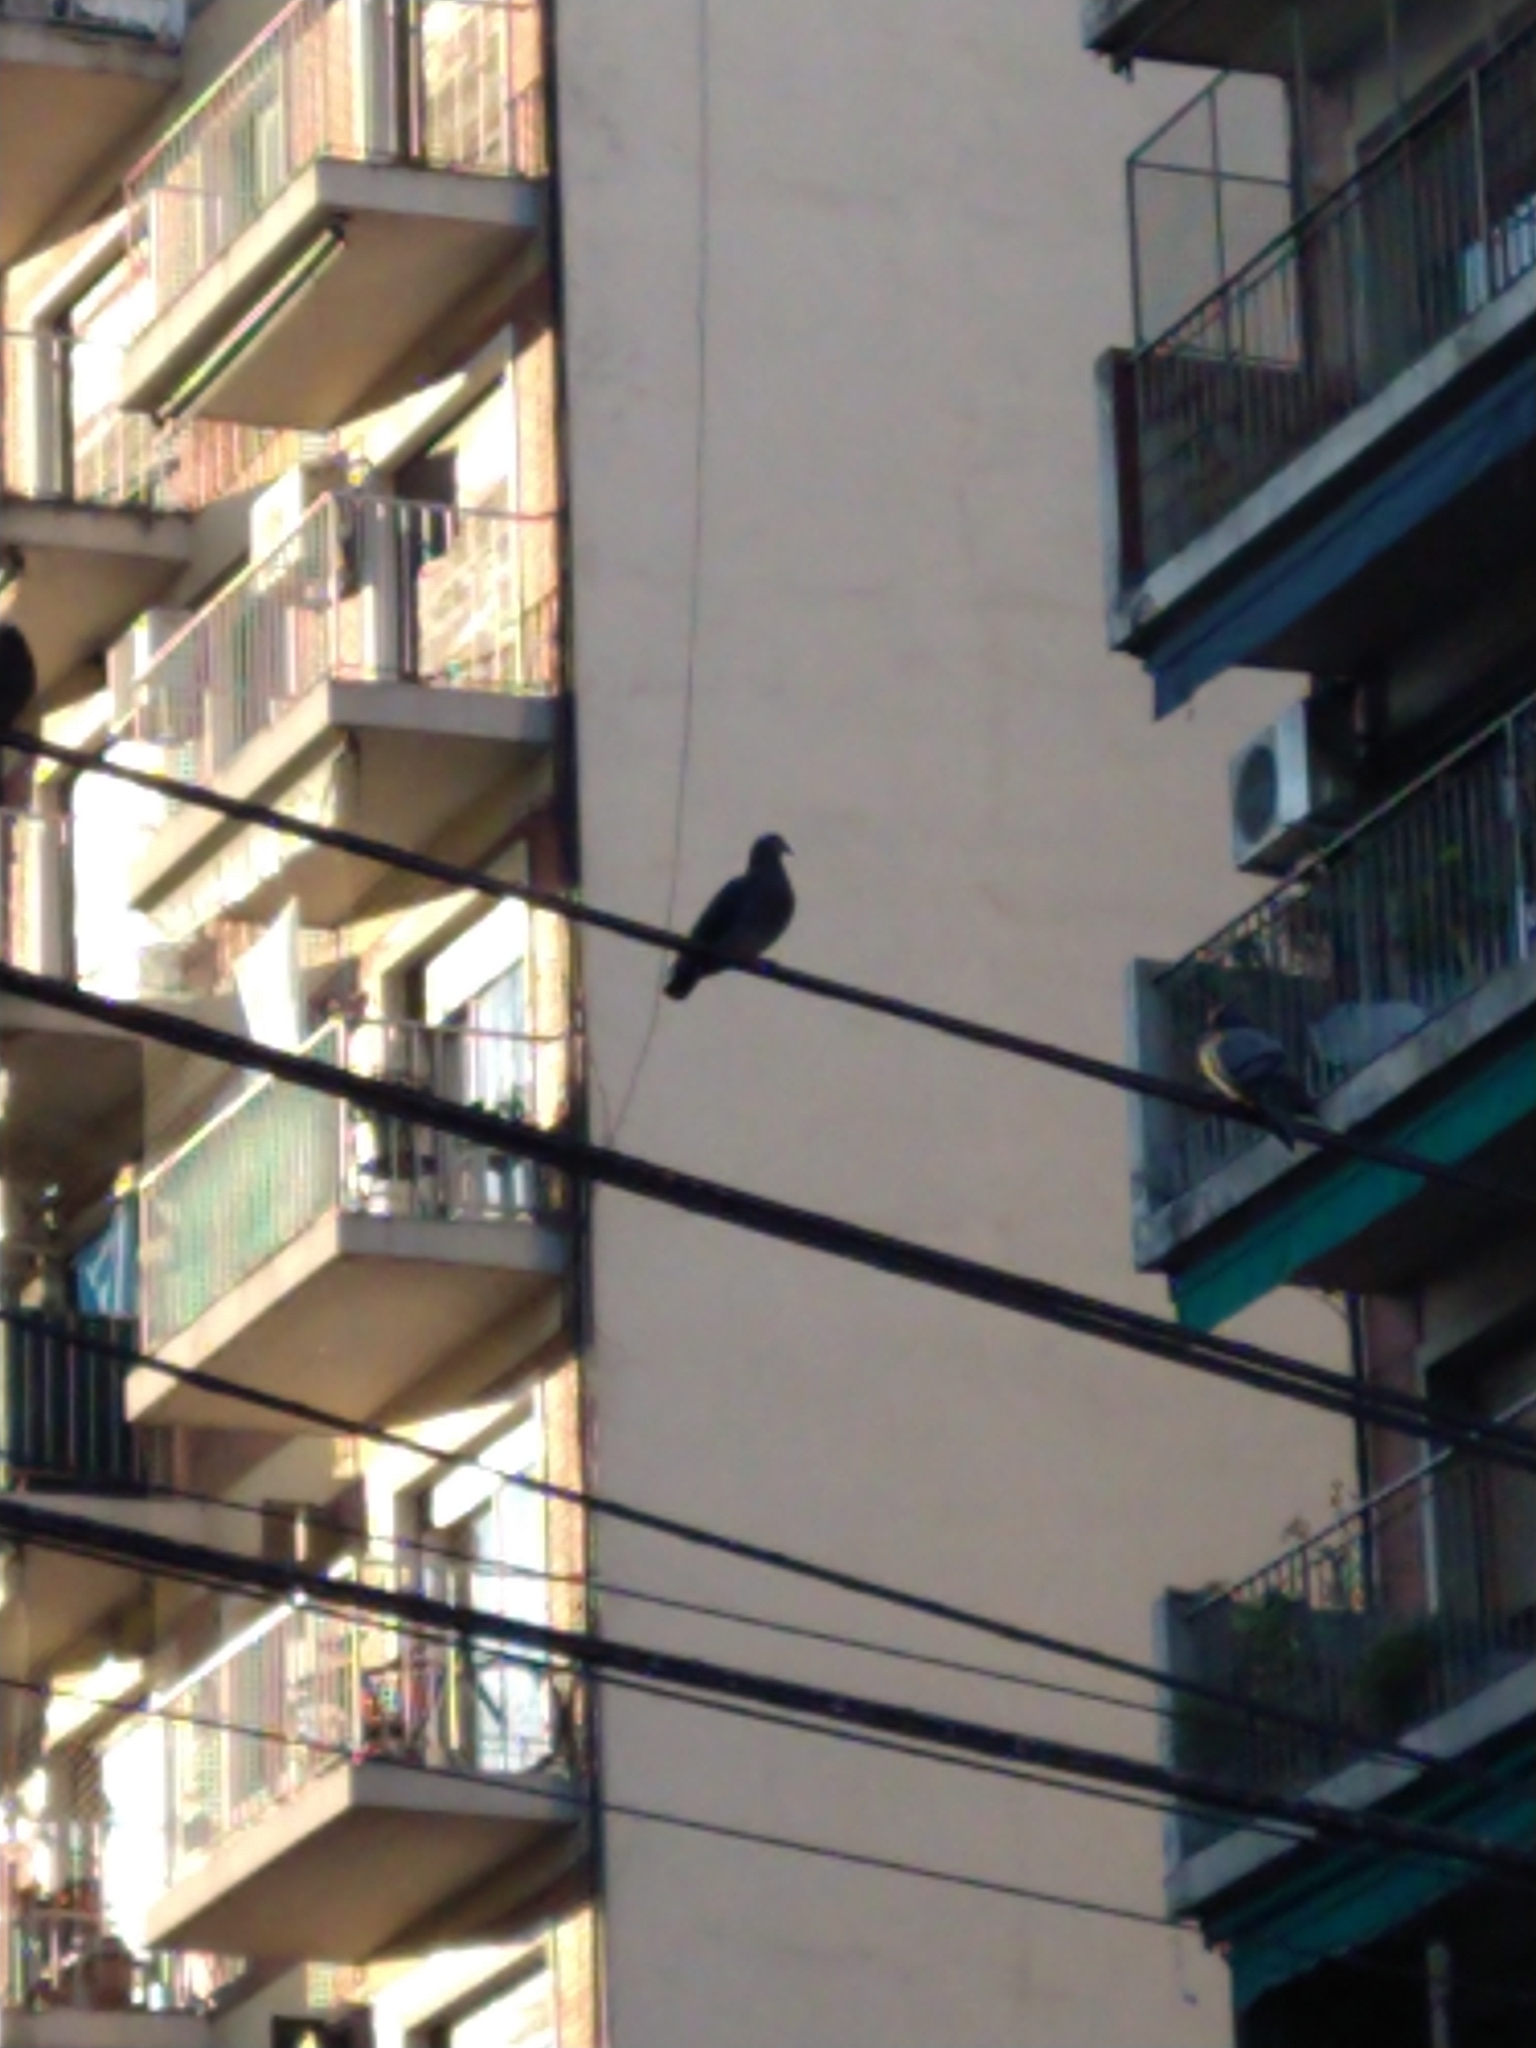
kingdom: Animalia
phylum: Chordata
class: Aves
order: Columbiformes
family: Columbidae
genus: Columba
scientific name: Columba livia
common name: Rock pigeon
